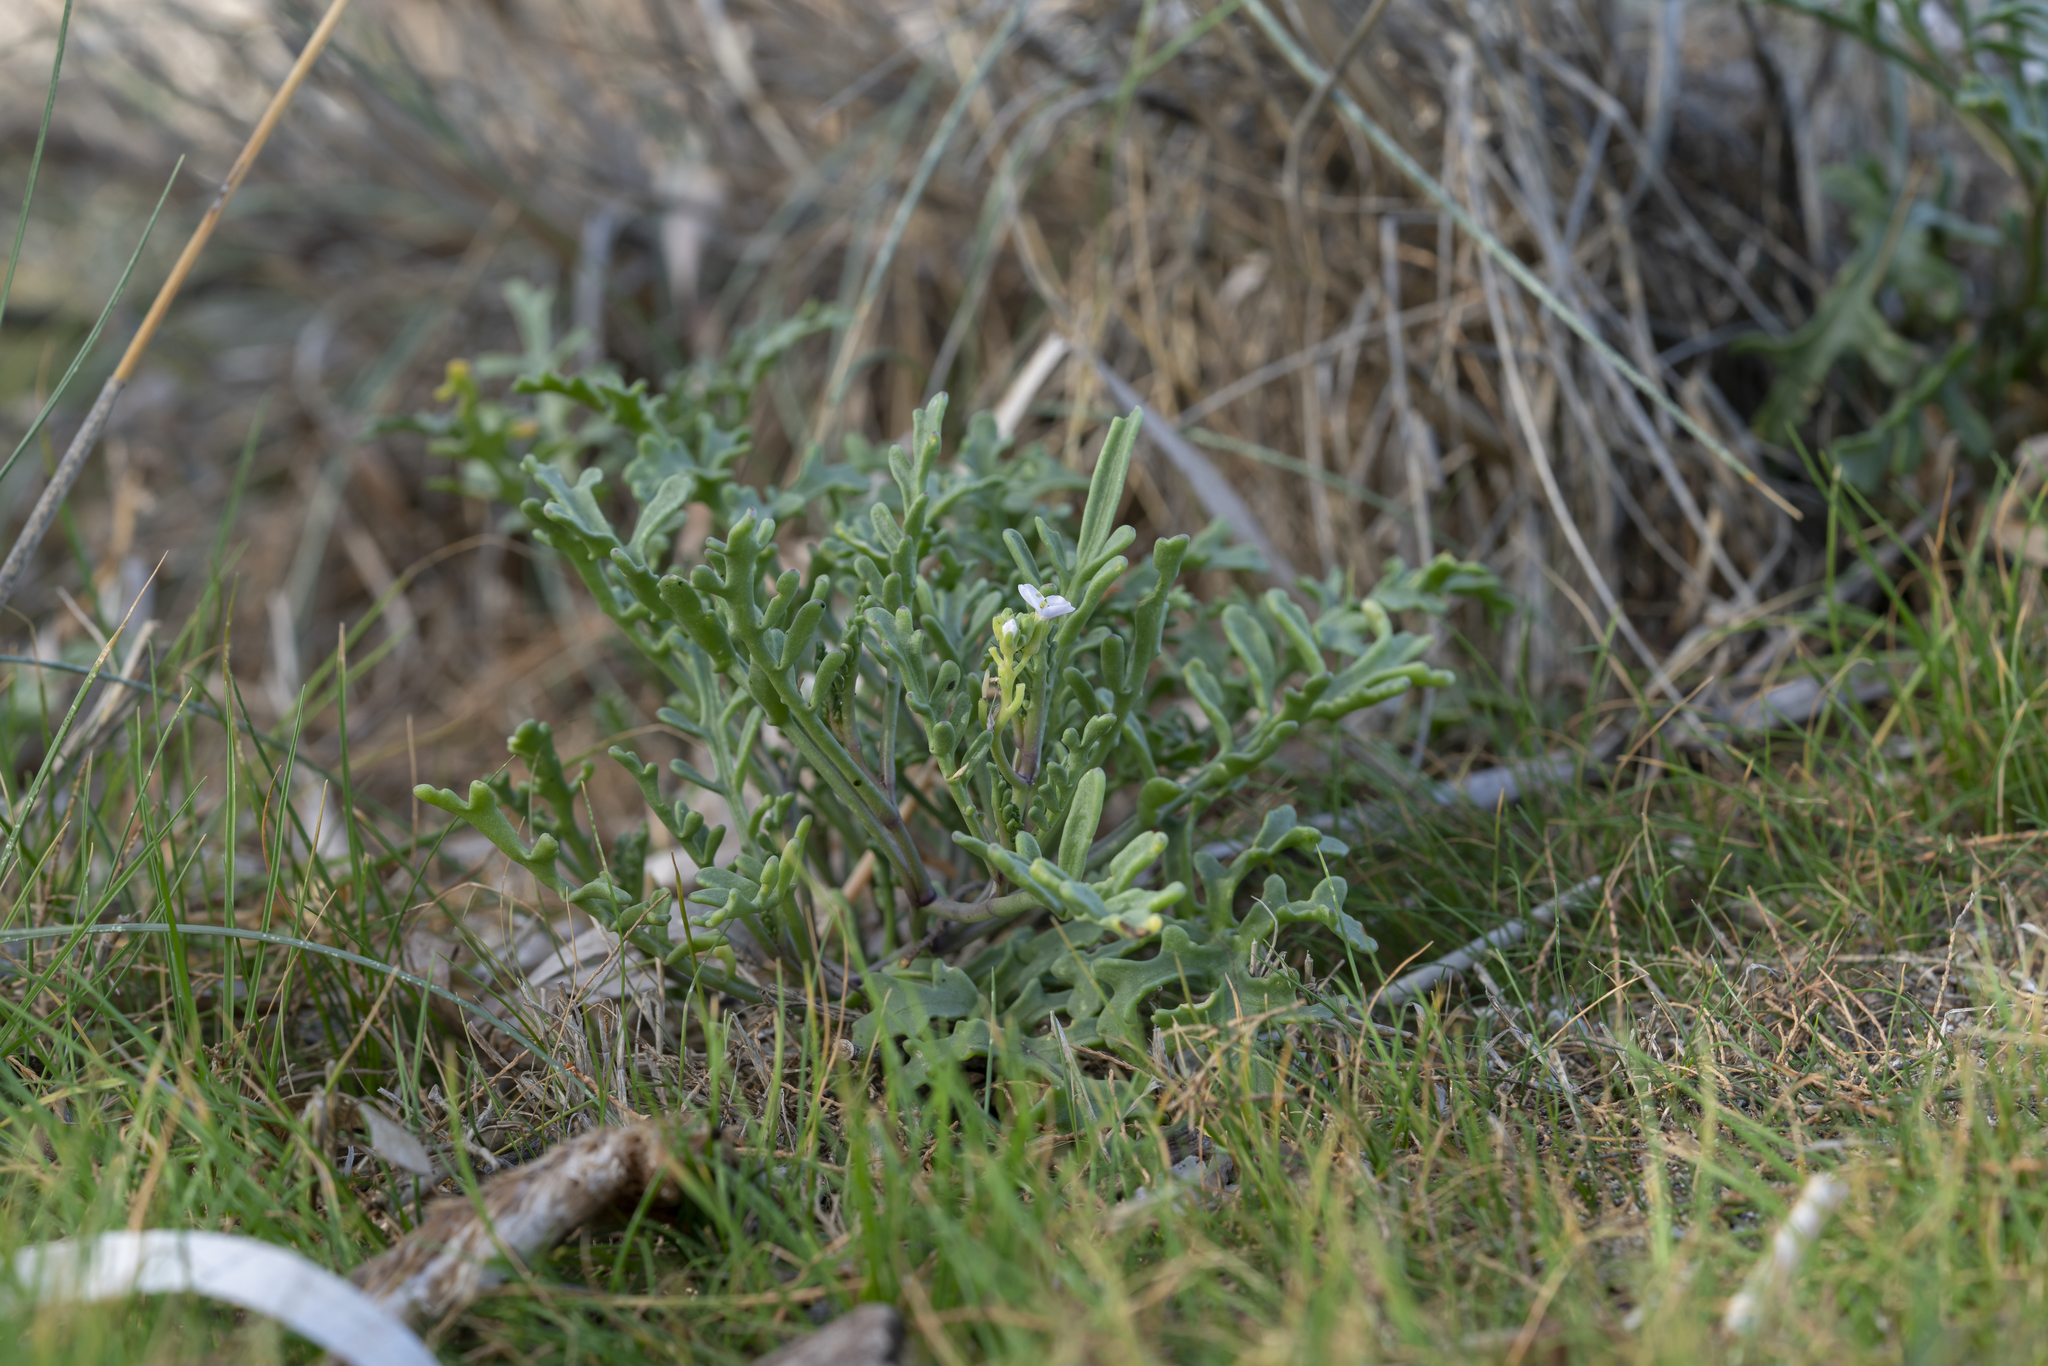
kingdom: Plantae
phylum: Tracheophyta
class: Magnoliopsida
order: Brassicales
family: Brassicaceae
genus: Cakile
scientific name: Cakile maritima
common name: Sea rocket
